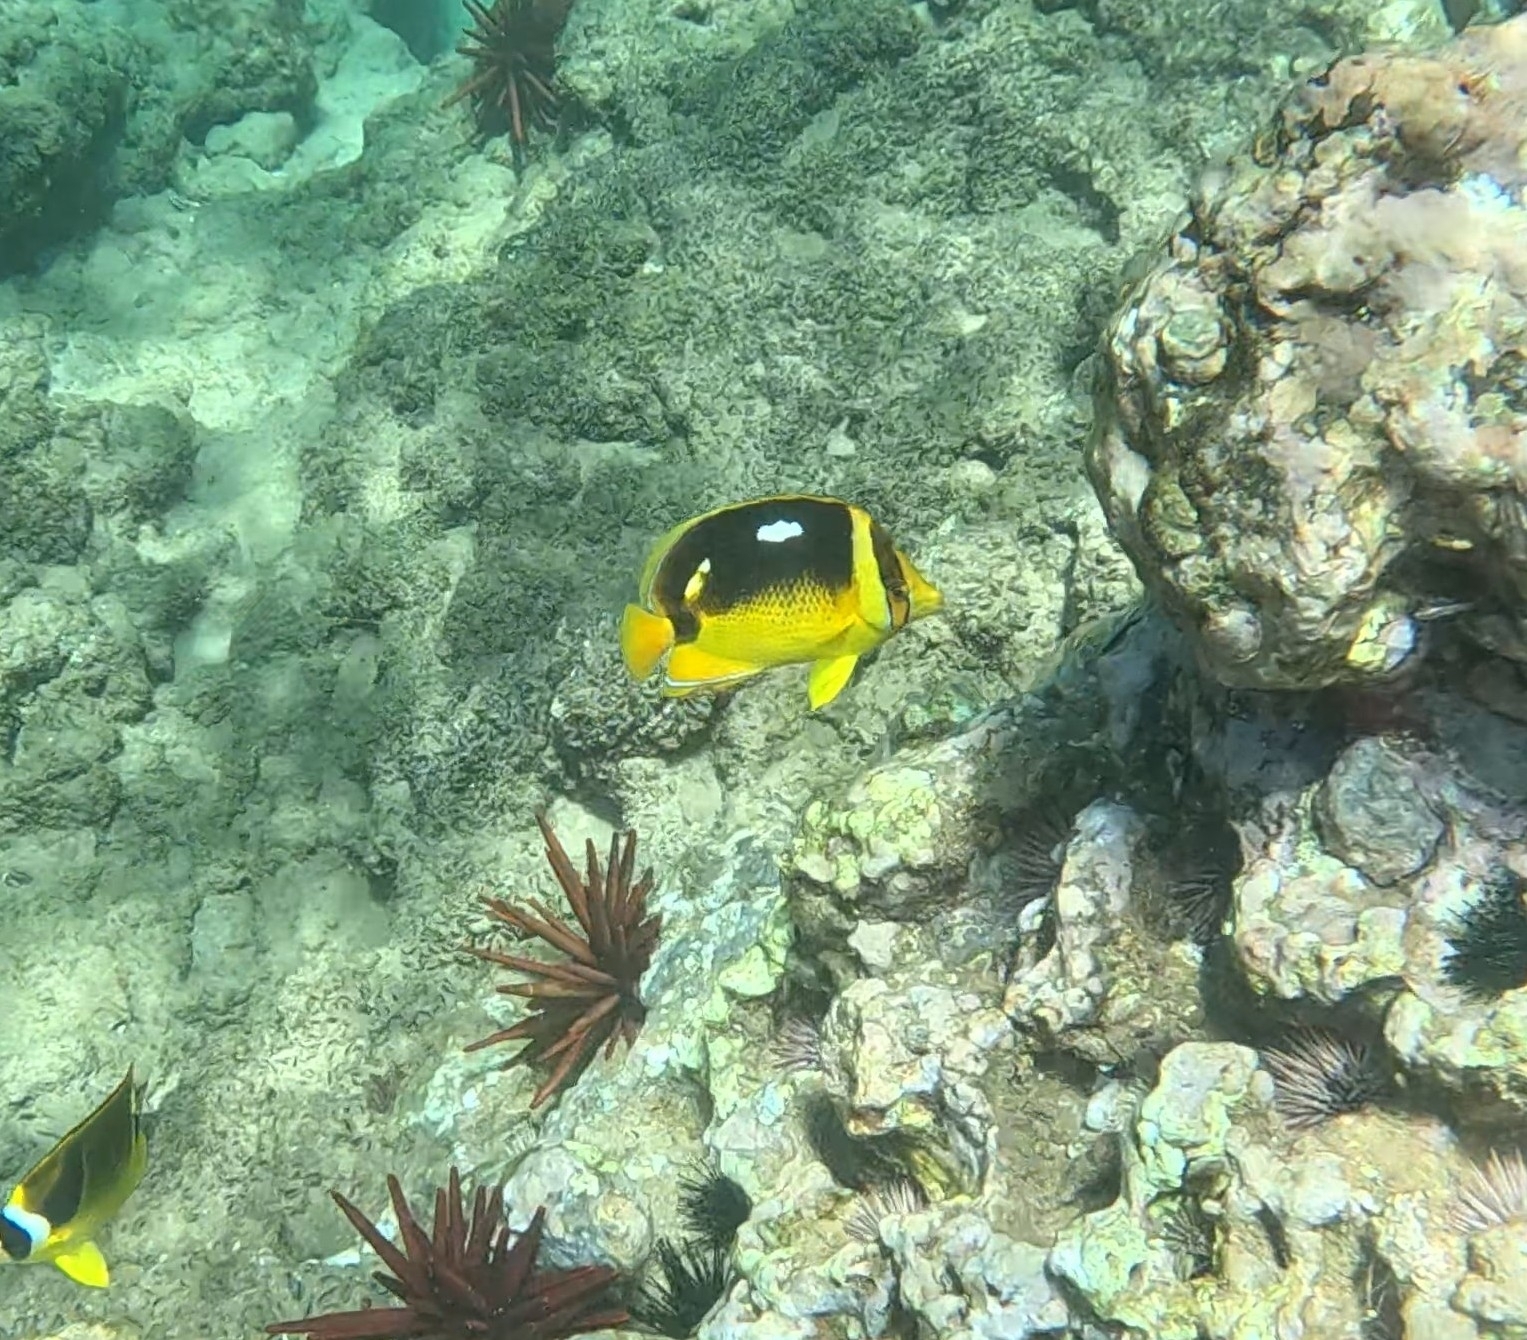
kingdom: Animalia
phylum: Chordata
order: Perciformes
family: Chaetodontidae
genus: Chaetodon
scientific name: Chaetodon quadrimaculatus
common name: Fourspot butterflyfish
